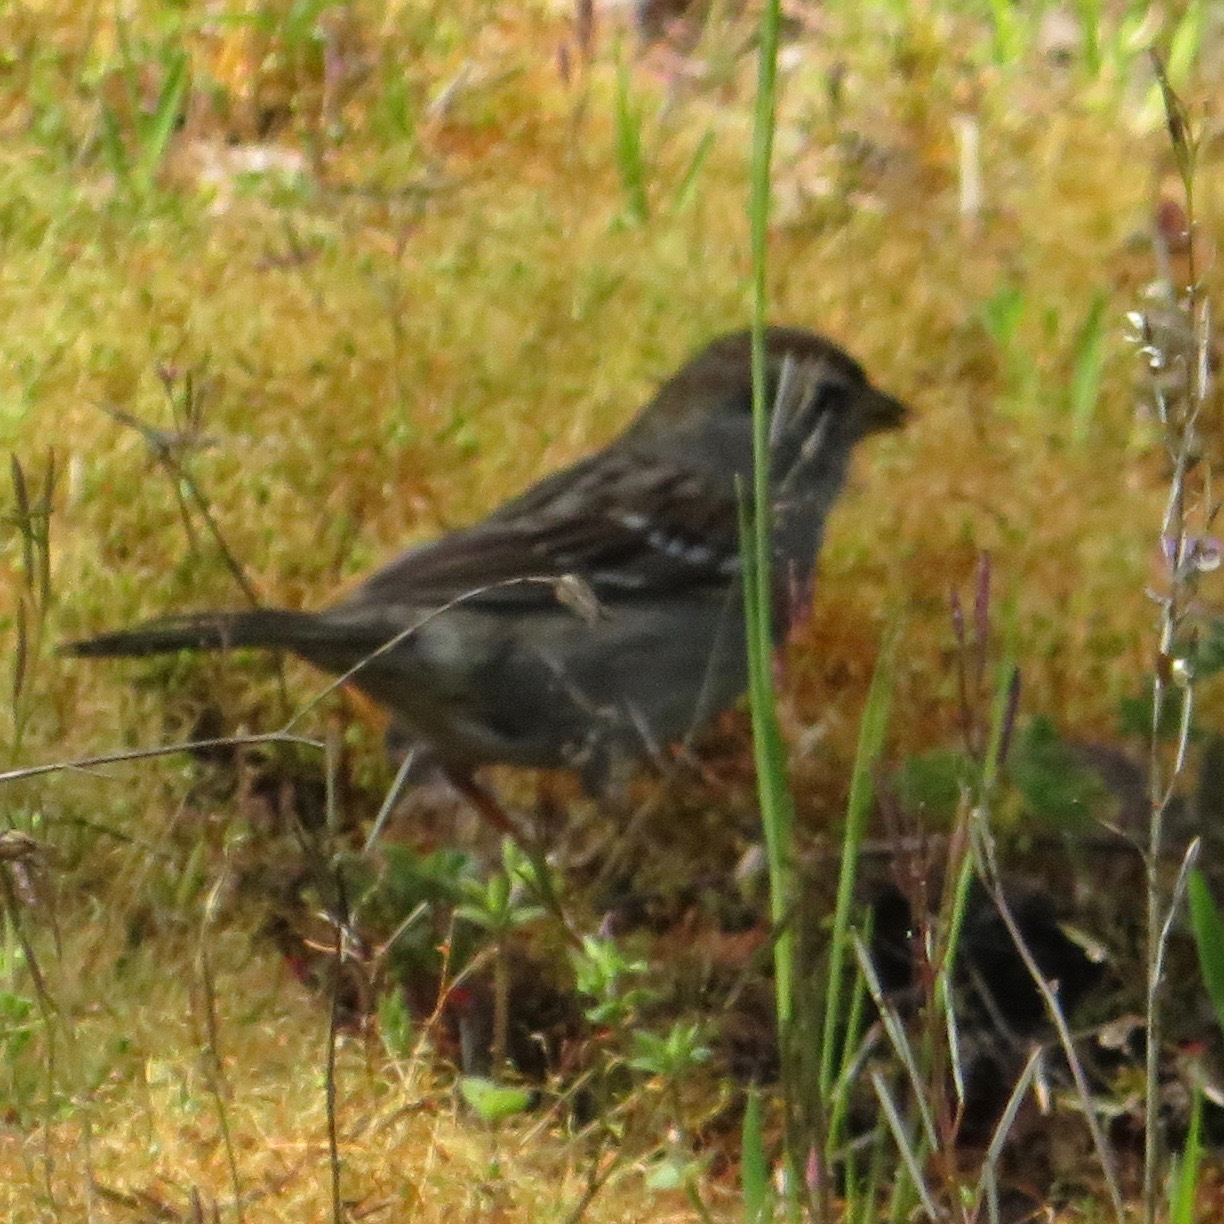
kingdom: Animalia
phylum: Chordata
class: Aves
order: Passeriformes
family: Passerellidae
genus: Zonotrichia
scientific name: Zonotrichia atricapilla
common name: Golden-crowned sparrow
